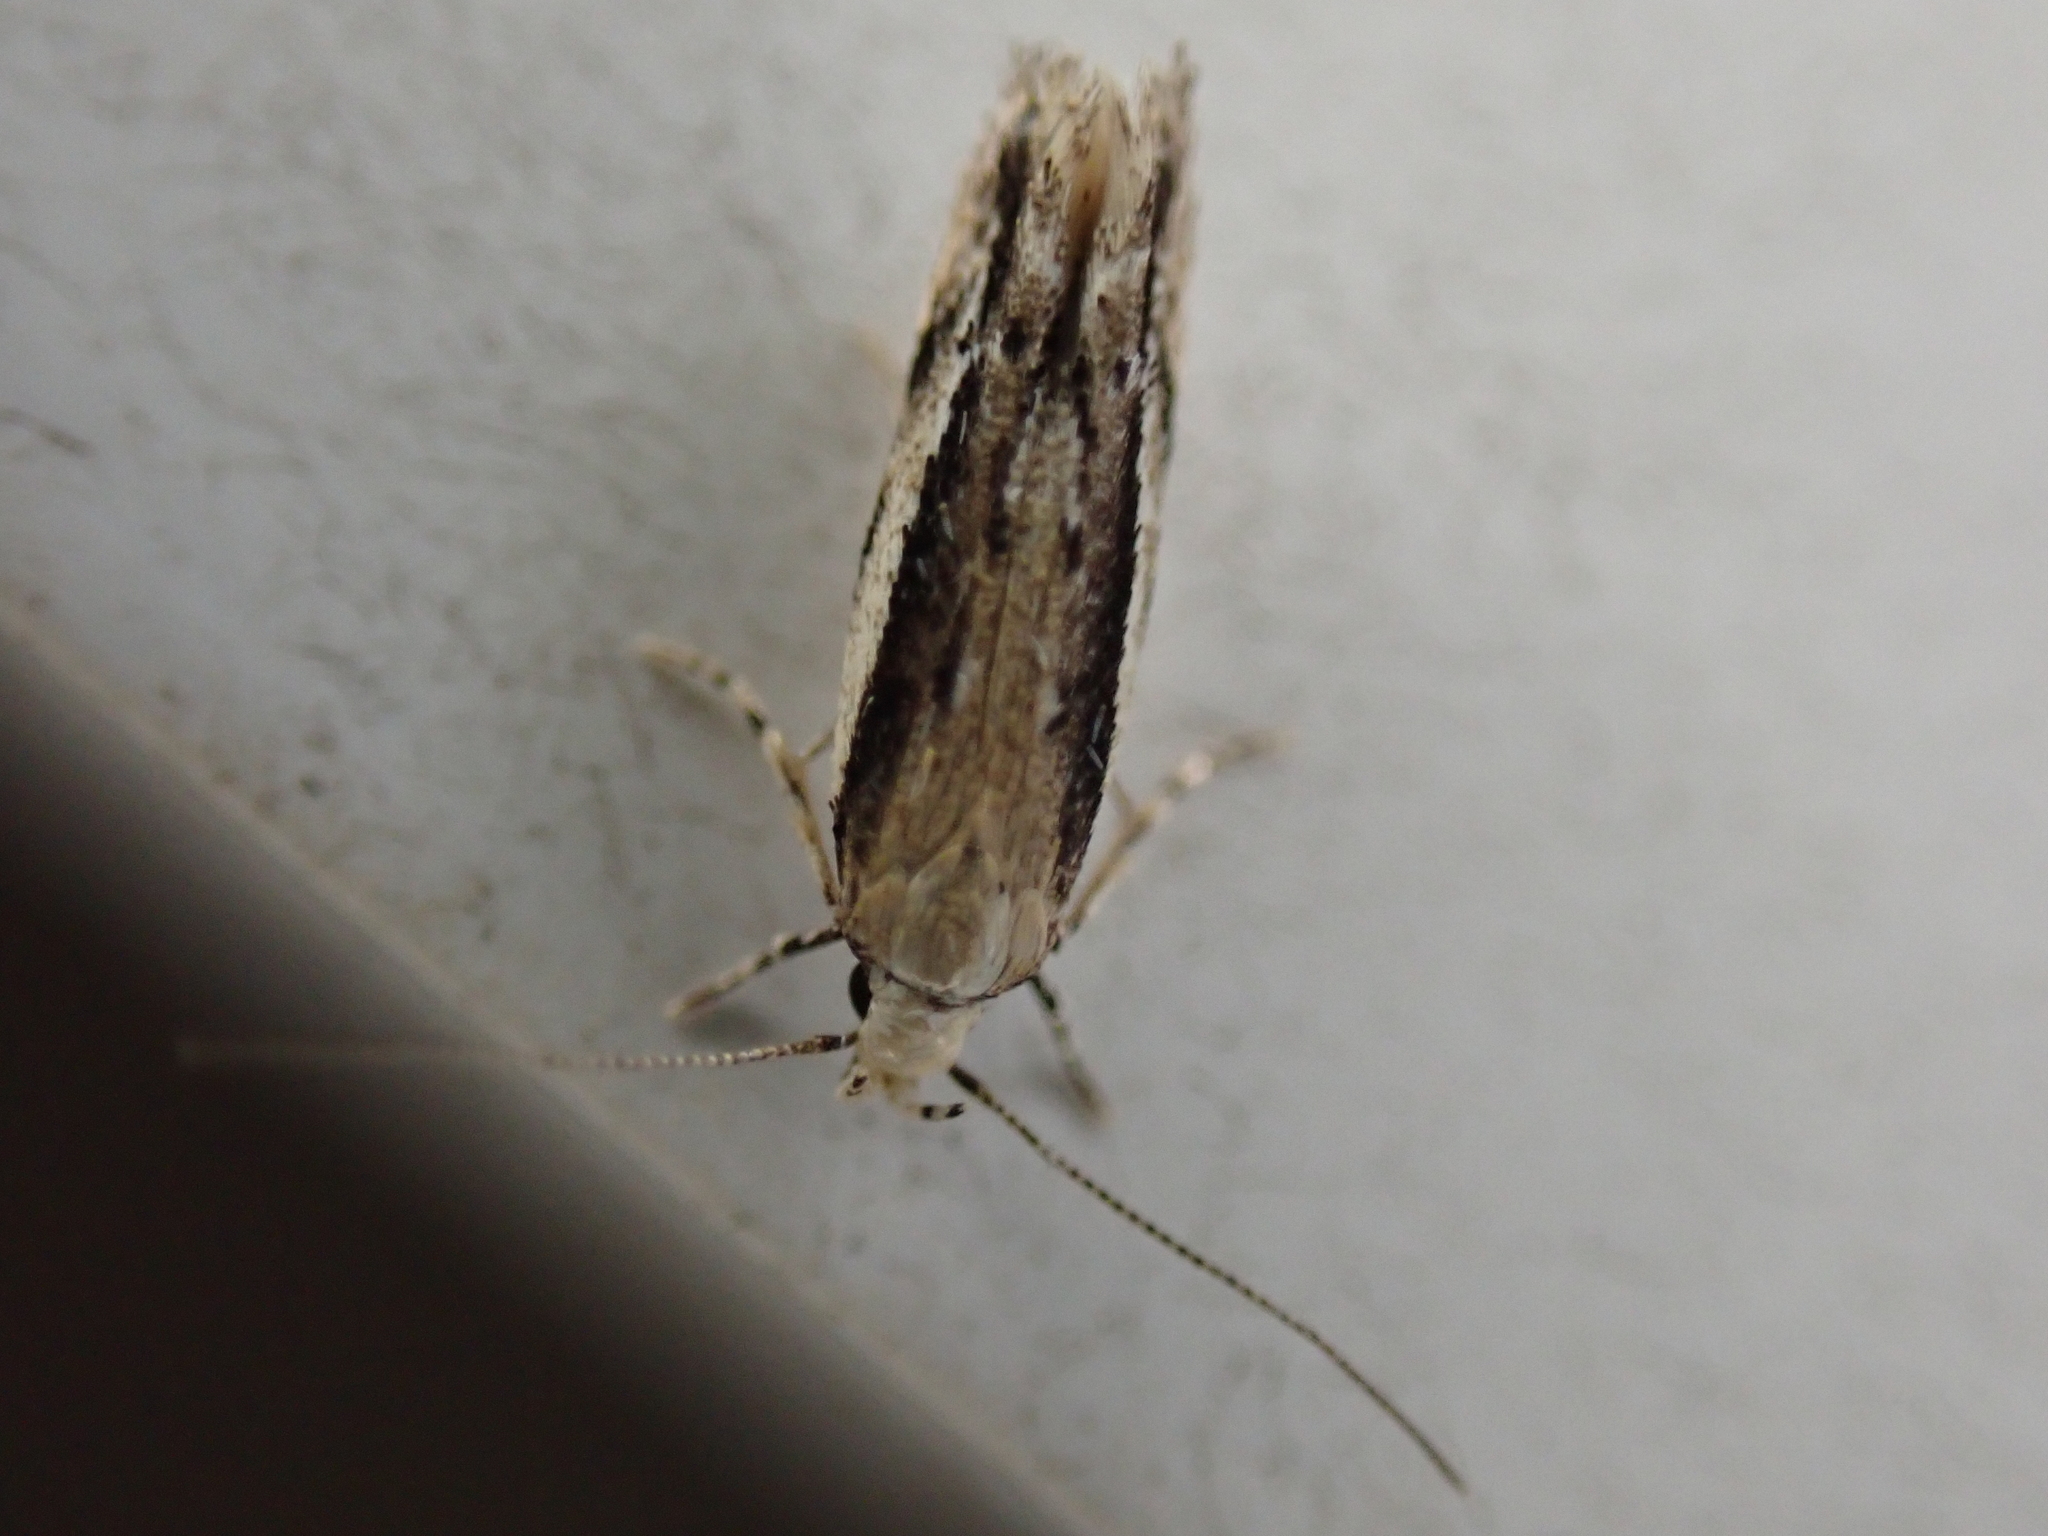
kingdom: Animalia
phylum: Arthropoda
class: Insecta
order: Lepidoptera
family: Gelechiidae
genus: Coleotechnites
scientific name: Coleotechnites albicostata
